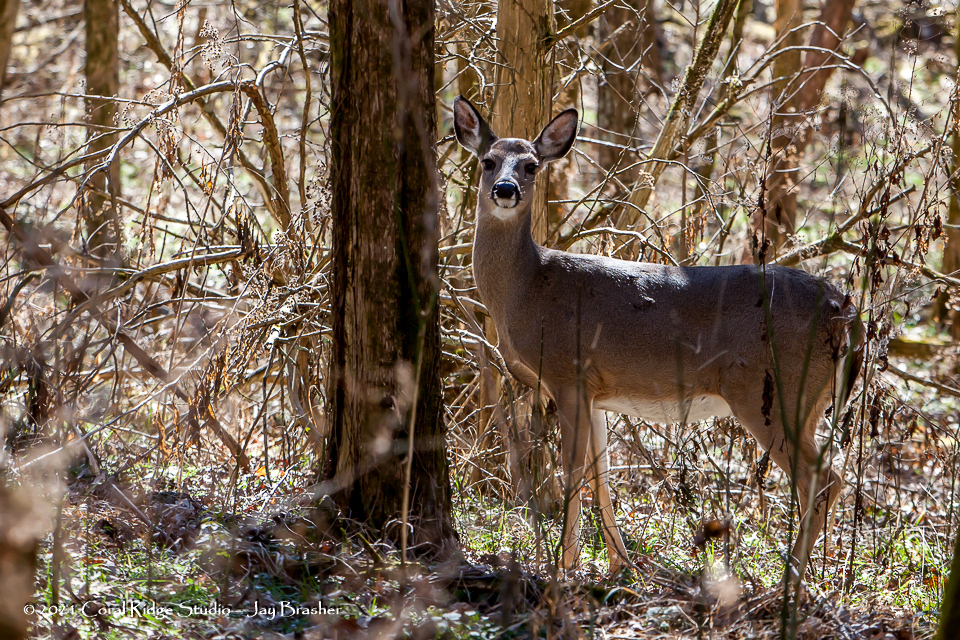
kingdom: Animalia
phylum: Chordata
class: Mammalia
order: Artiodactyla
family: Cervidae
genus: Odocoileus
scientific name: Odocoileus virginianus
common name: White-tailed deer
